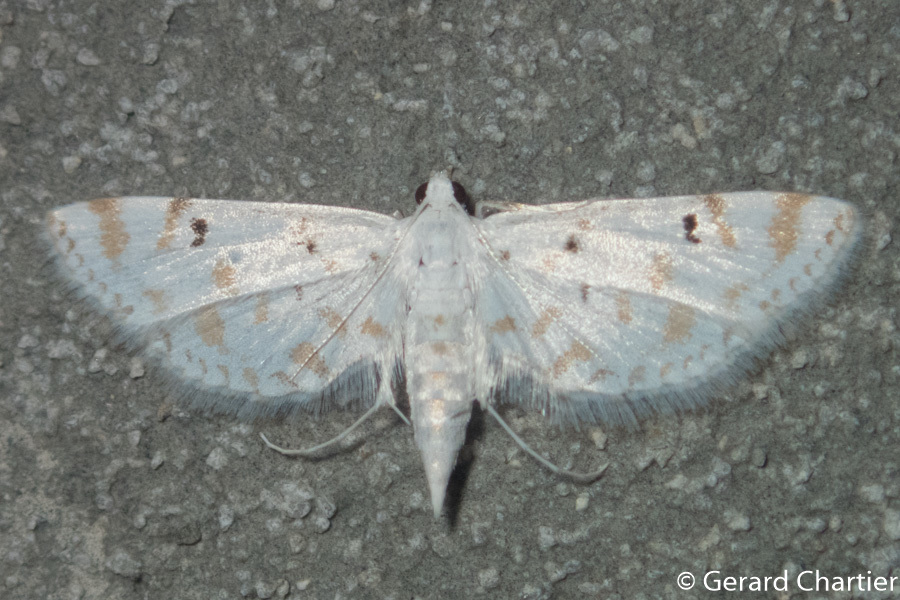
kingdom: Animalia
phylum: Arthropoda
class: Insecta
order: Lepidoptera
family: Crambidae
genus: Parapoynx
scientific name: Parapoynx stagnalis
